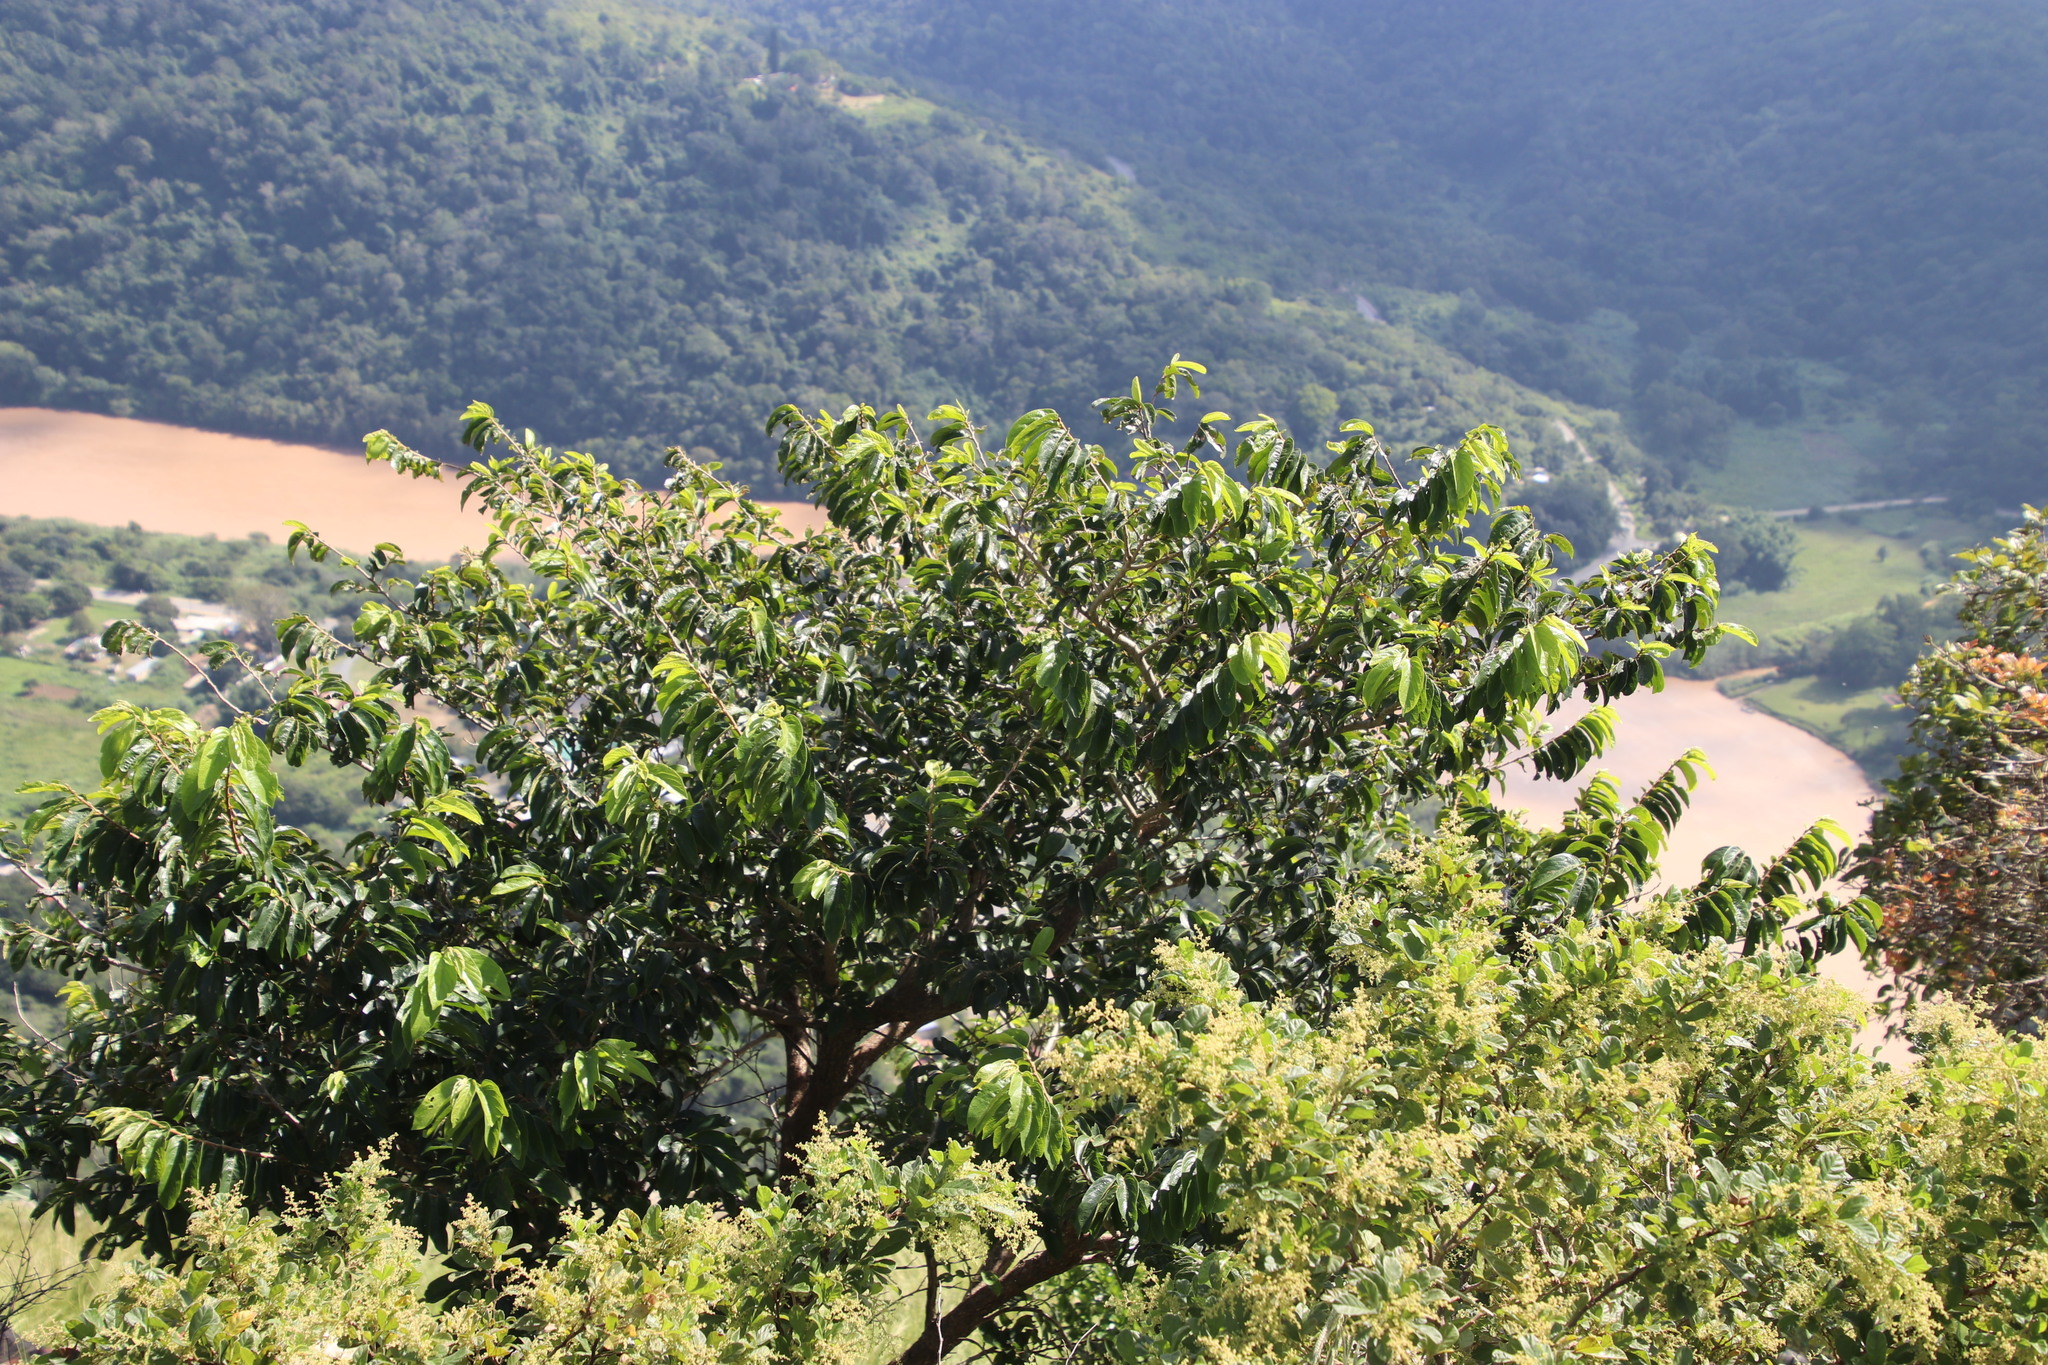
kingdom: Plantae
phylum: Tracheophyta
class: Magnoliopsida
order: Malpighiales
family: Phyllanthaceae
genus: Antidesma
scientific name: Antidesma venosum
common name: Tassel-berry
